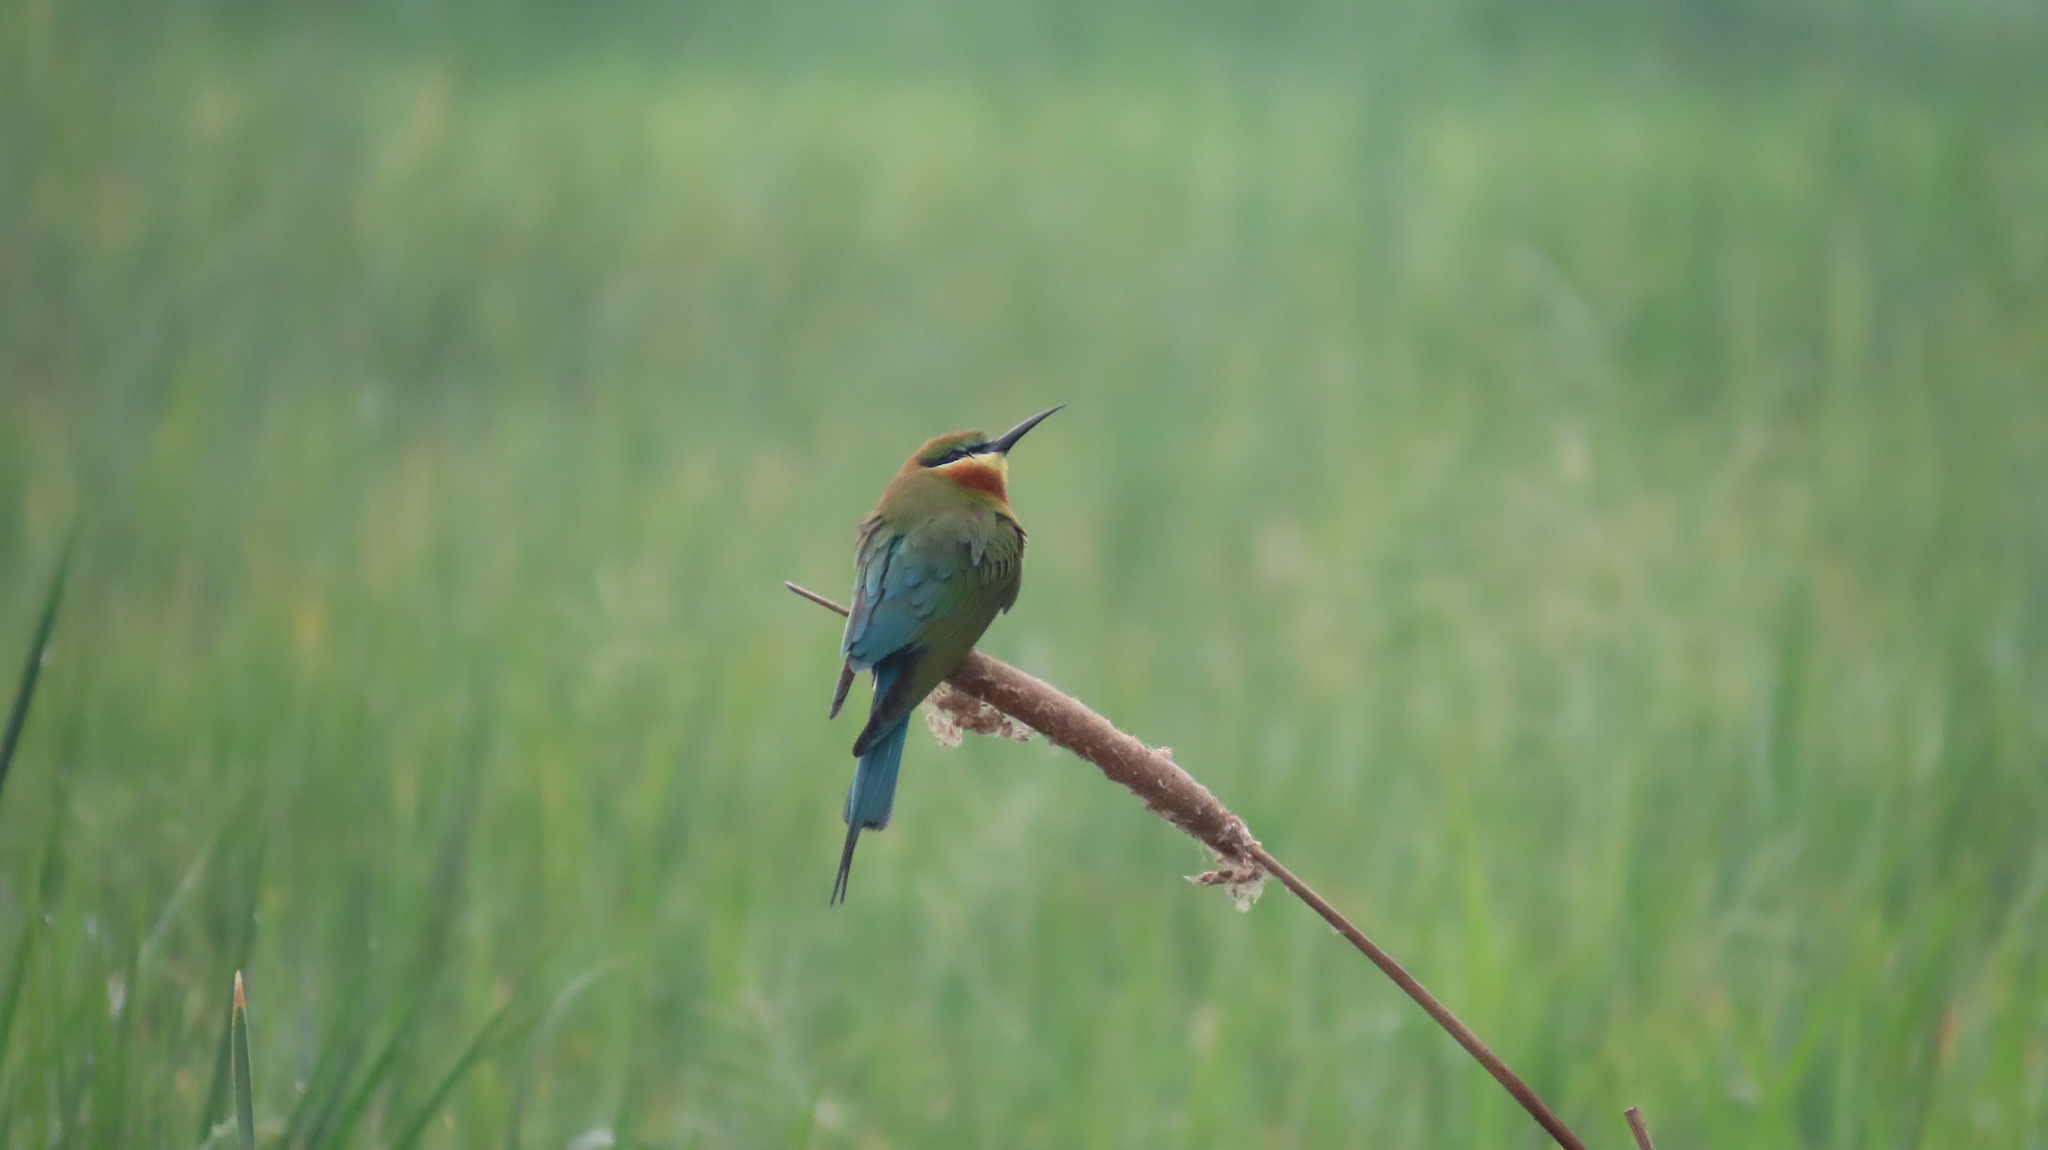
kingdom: Animalia
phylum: Chordata
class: Aves
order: Coraciiformes
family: Meropidae
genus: Merops
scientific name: Merops philippinus
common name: Blue-tailed bee-eater
